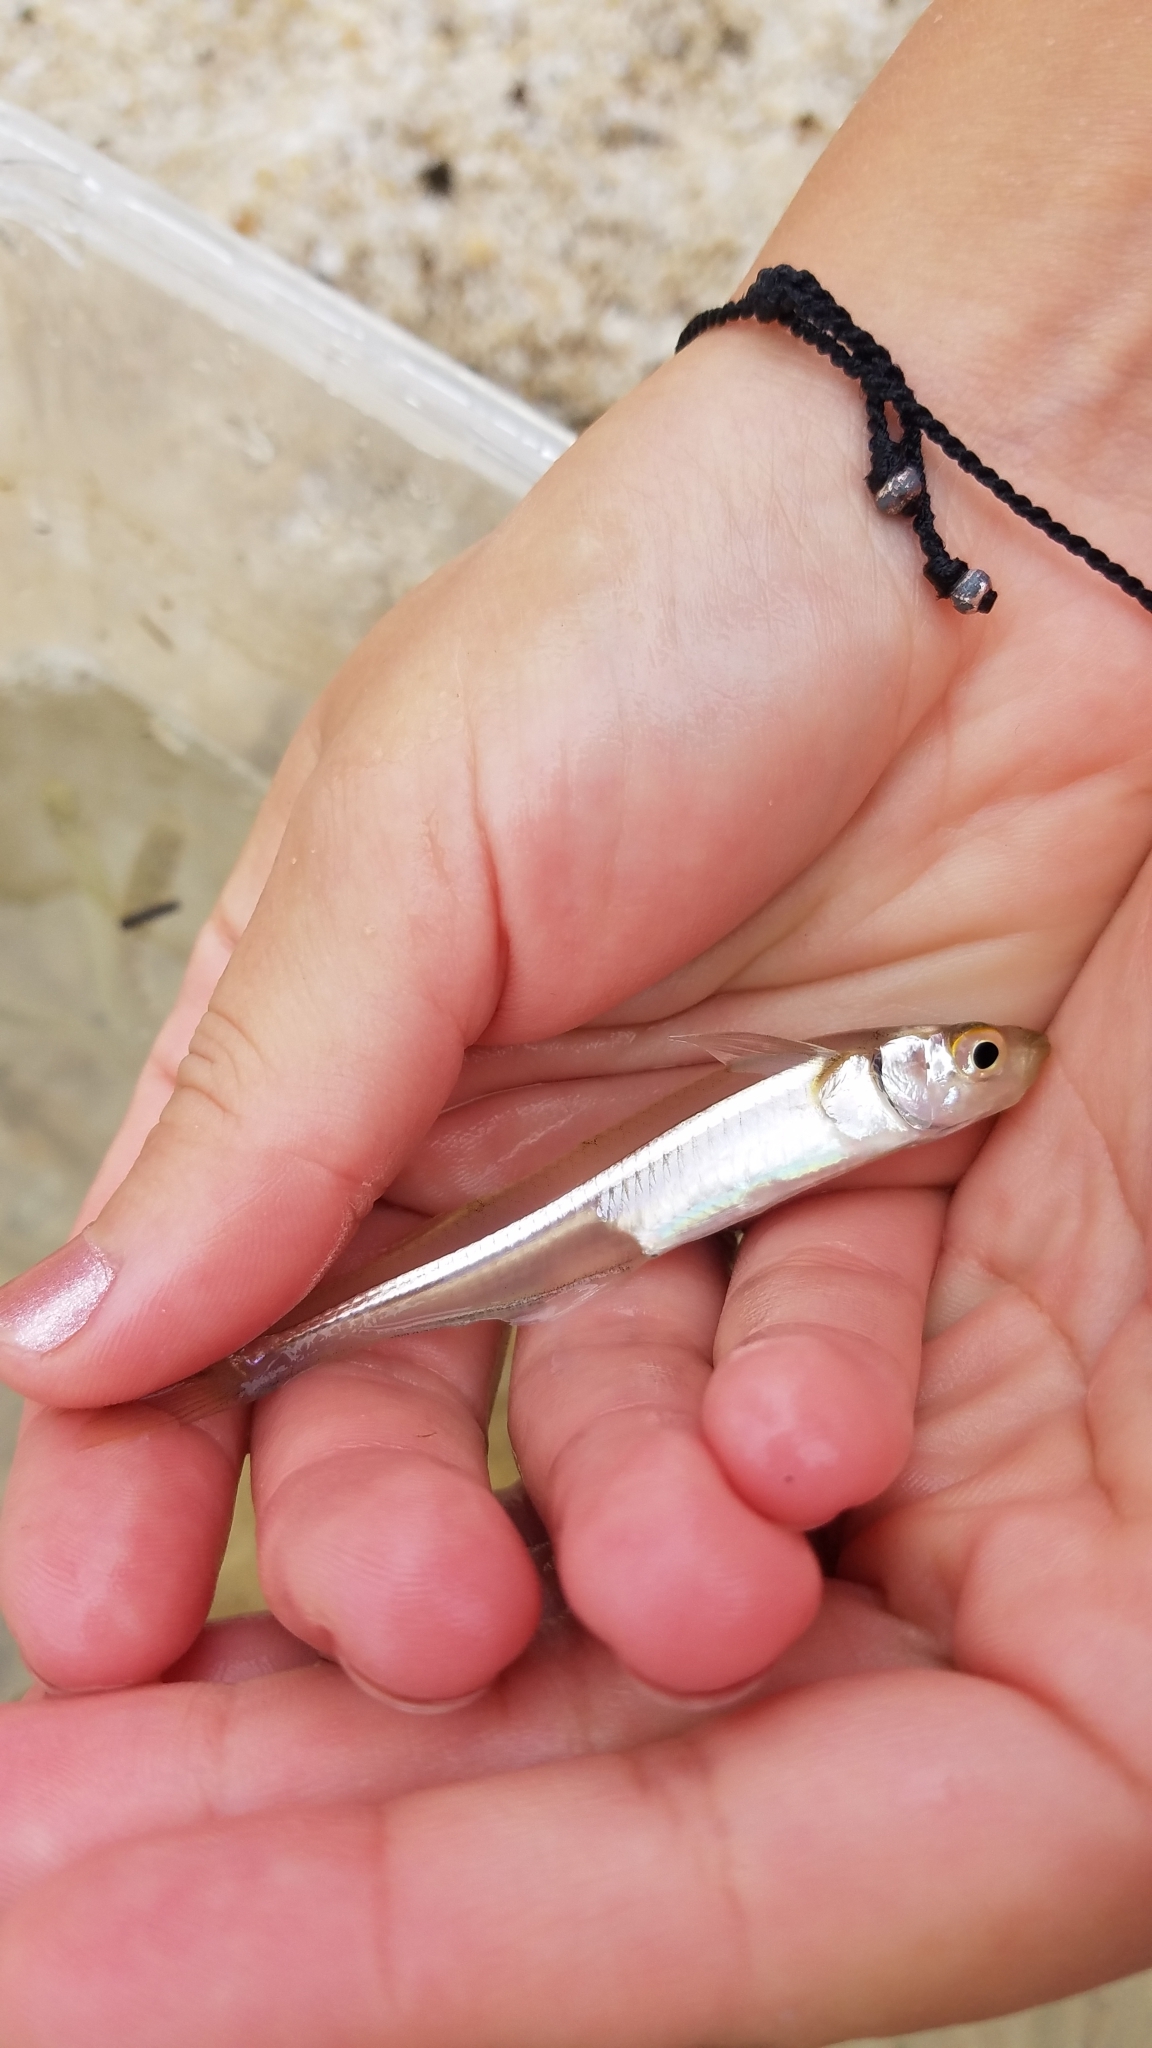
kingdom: Animalia
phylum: Chordata
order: Atheriniformes
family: Atherinopsidae
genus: Menidia
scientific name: Menidia menidia
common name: Atlantic silverside
